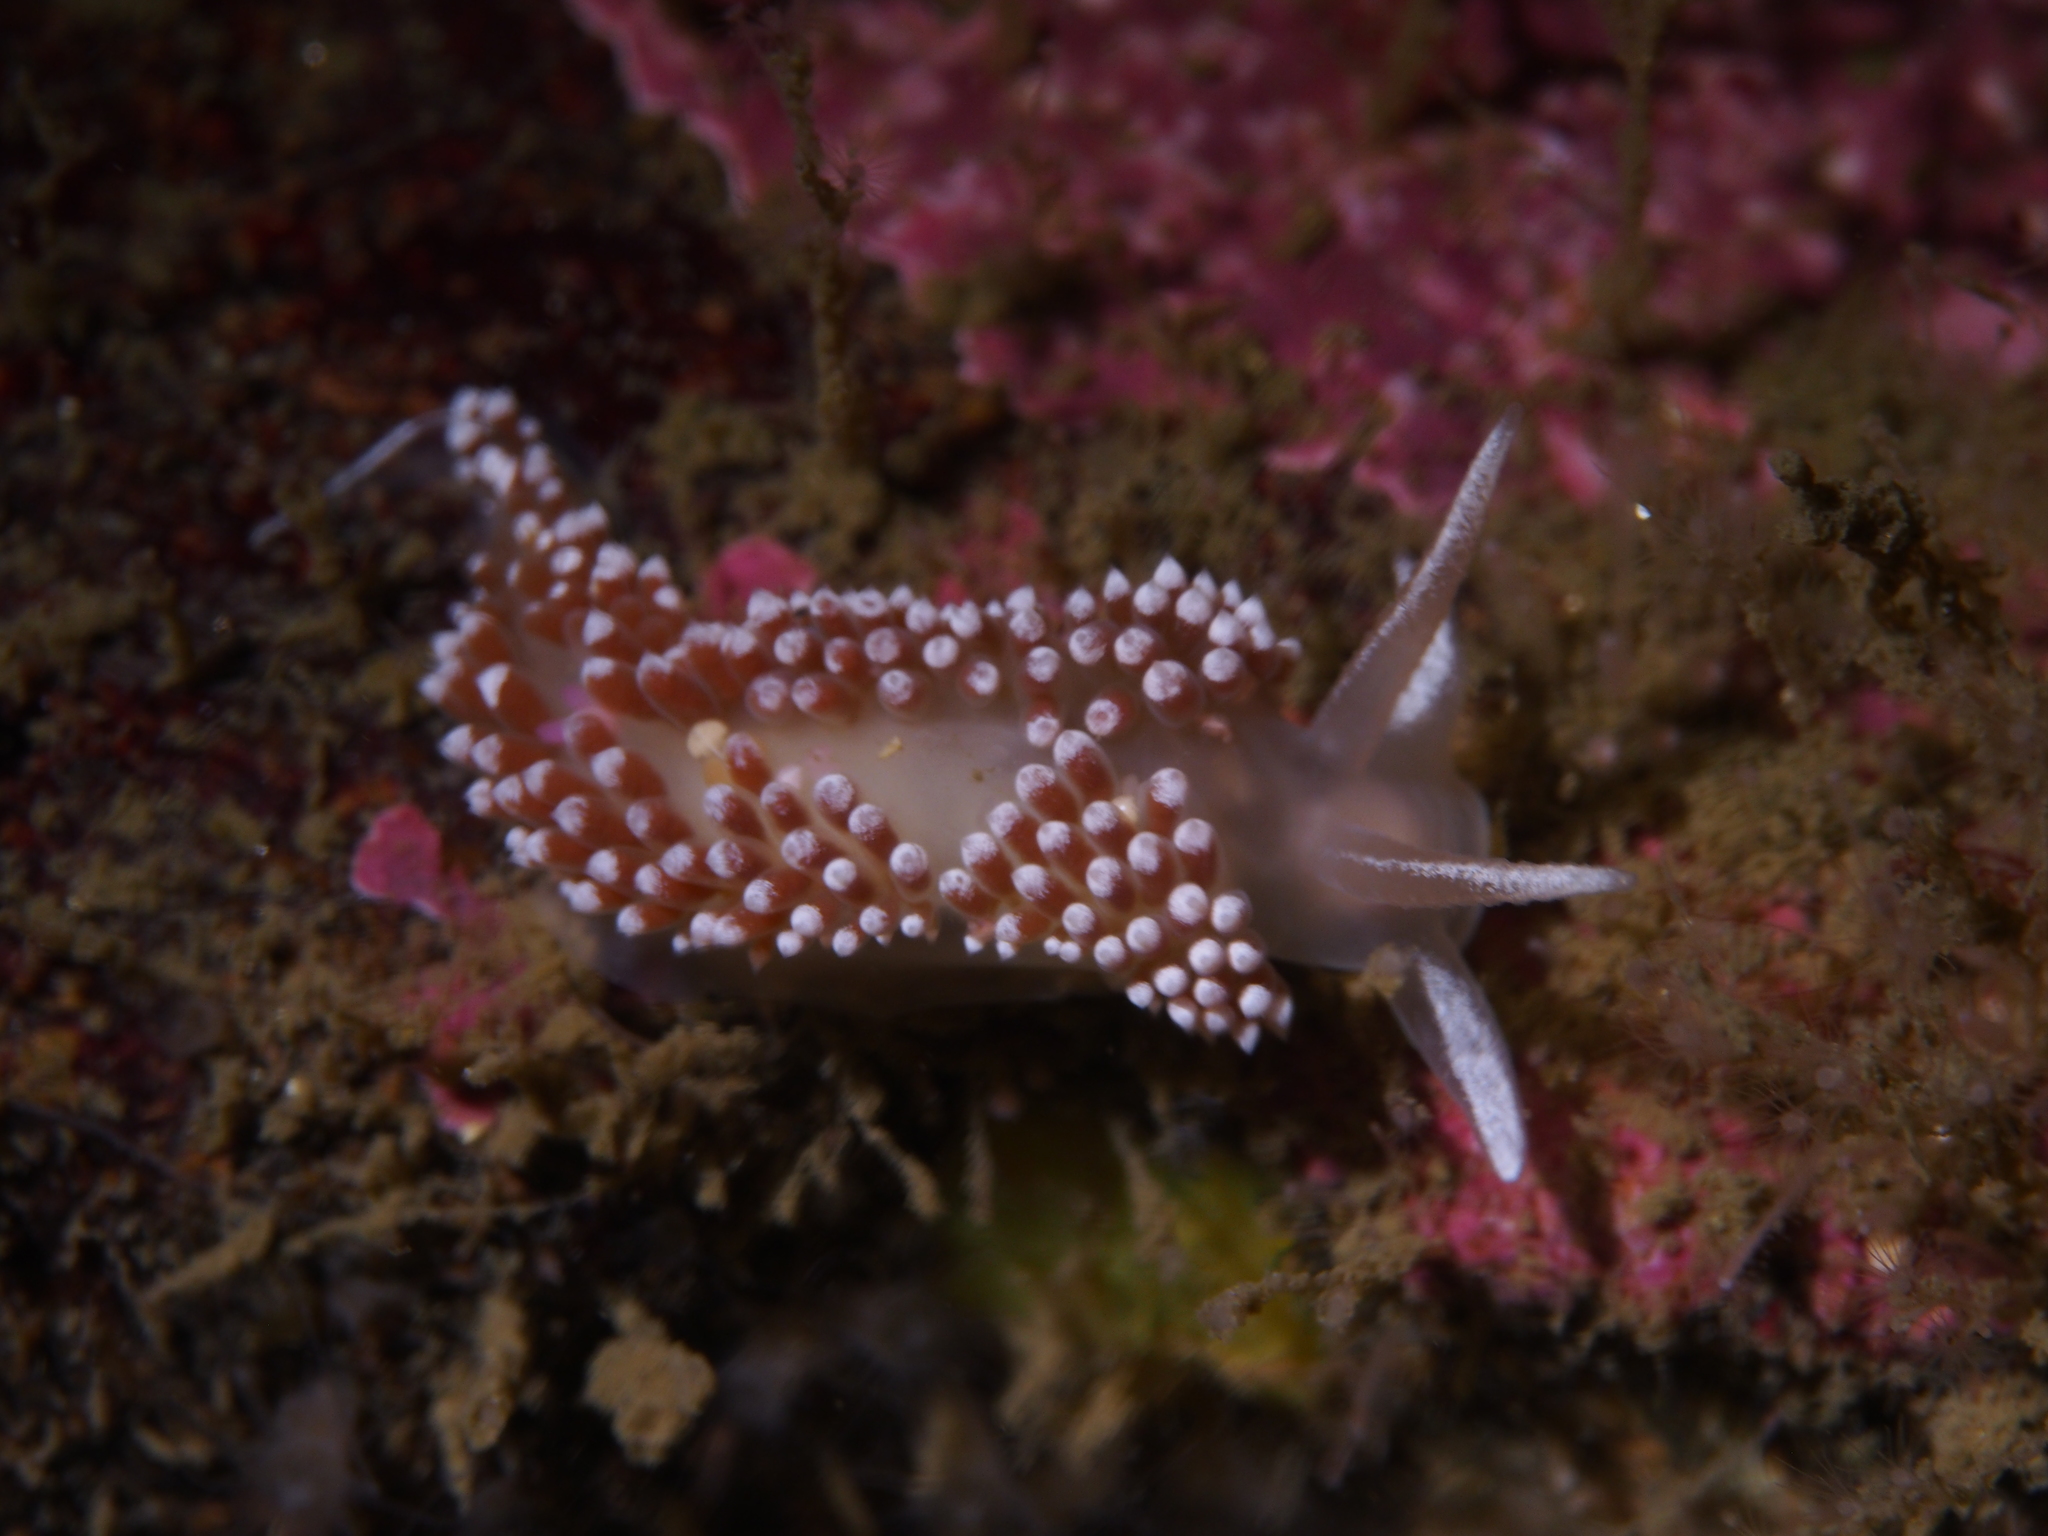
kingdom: Animalia
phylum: Mollusca
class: Gastropoda
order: Nudibranchia
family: Coryphellidae
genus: Coryphella
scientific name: Coryphella verrucosa
